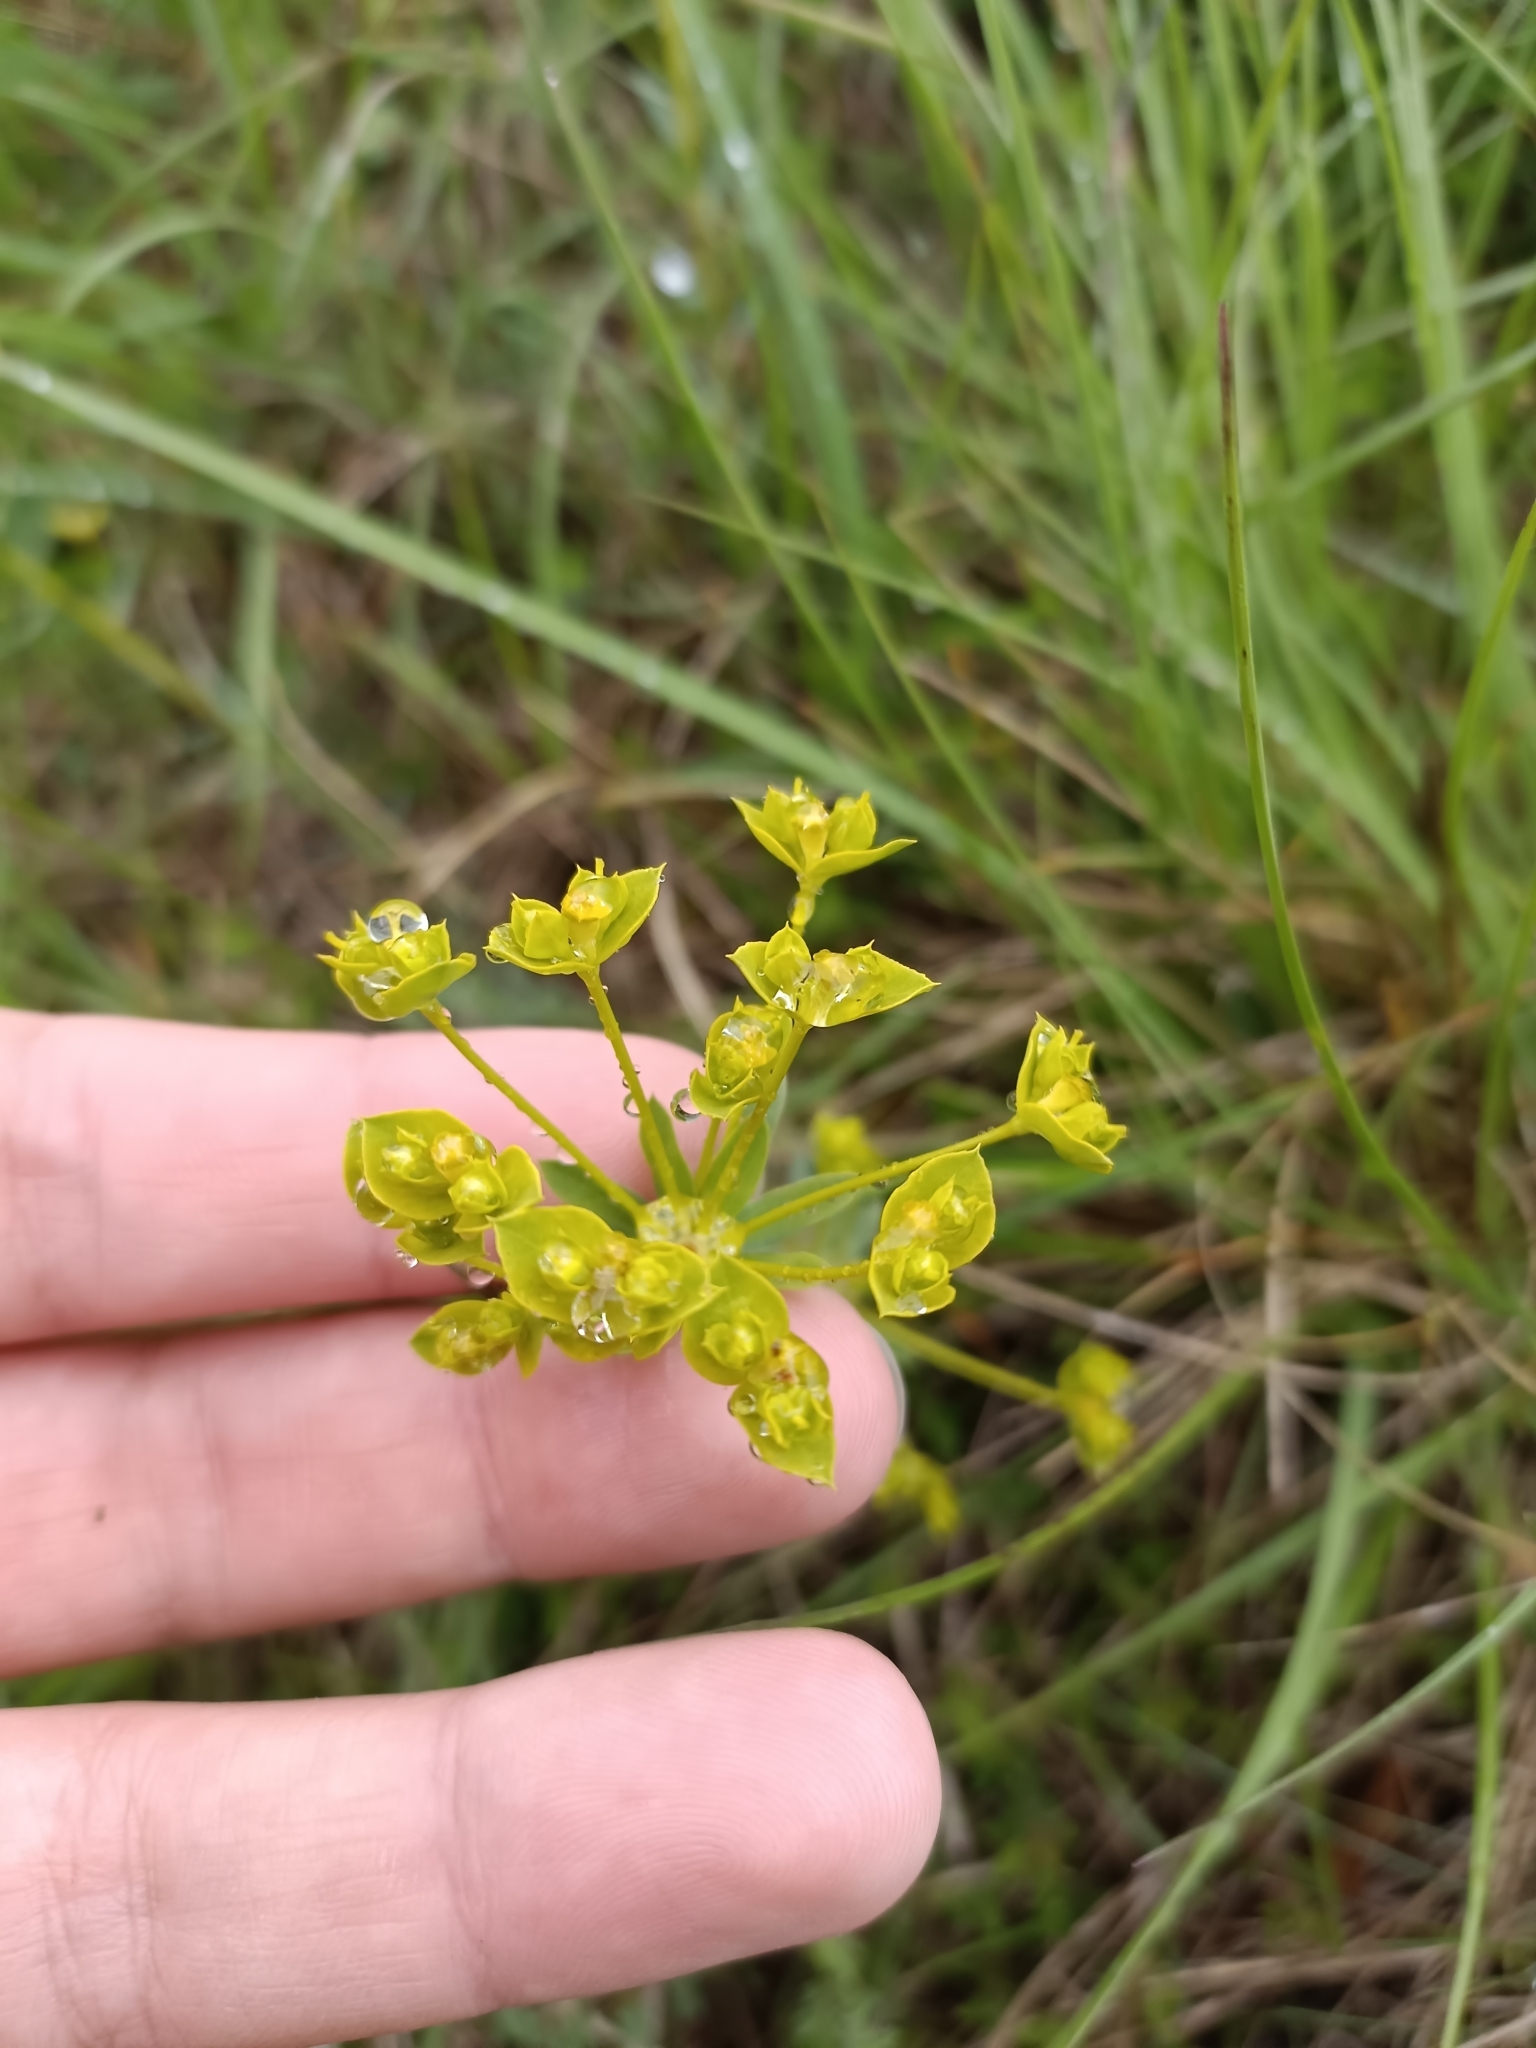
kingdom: Plantae
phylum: Tracheophyta
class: Magnoliopsida
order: Malpighiales
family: Euphorbiaceae
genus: Euphorbia
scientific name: Euphorbia seguieriana
